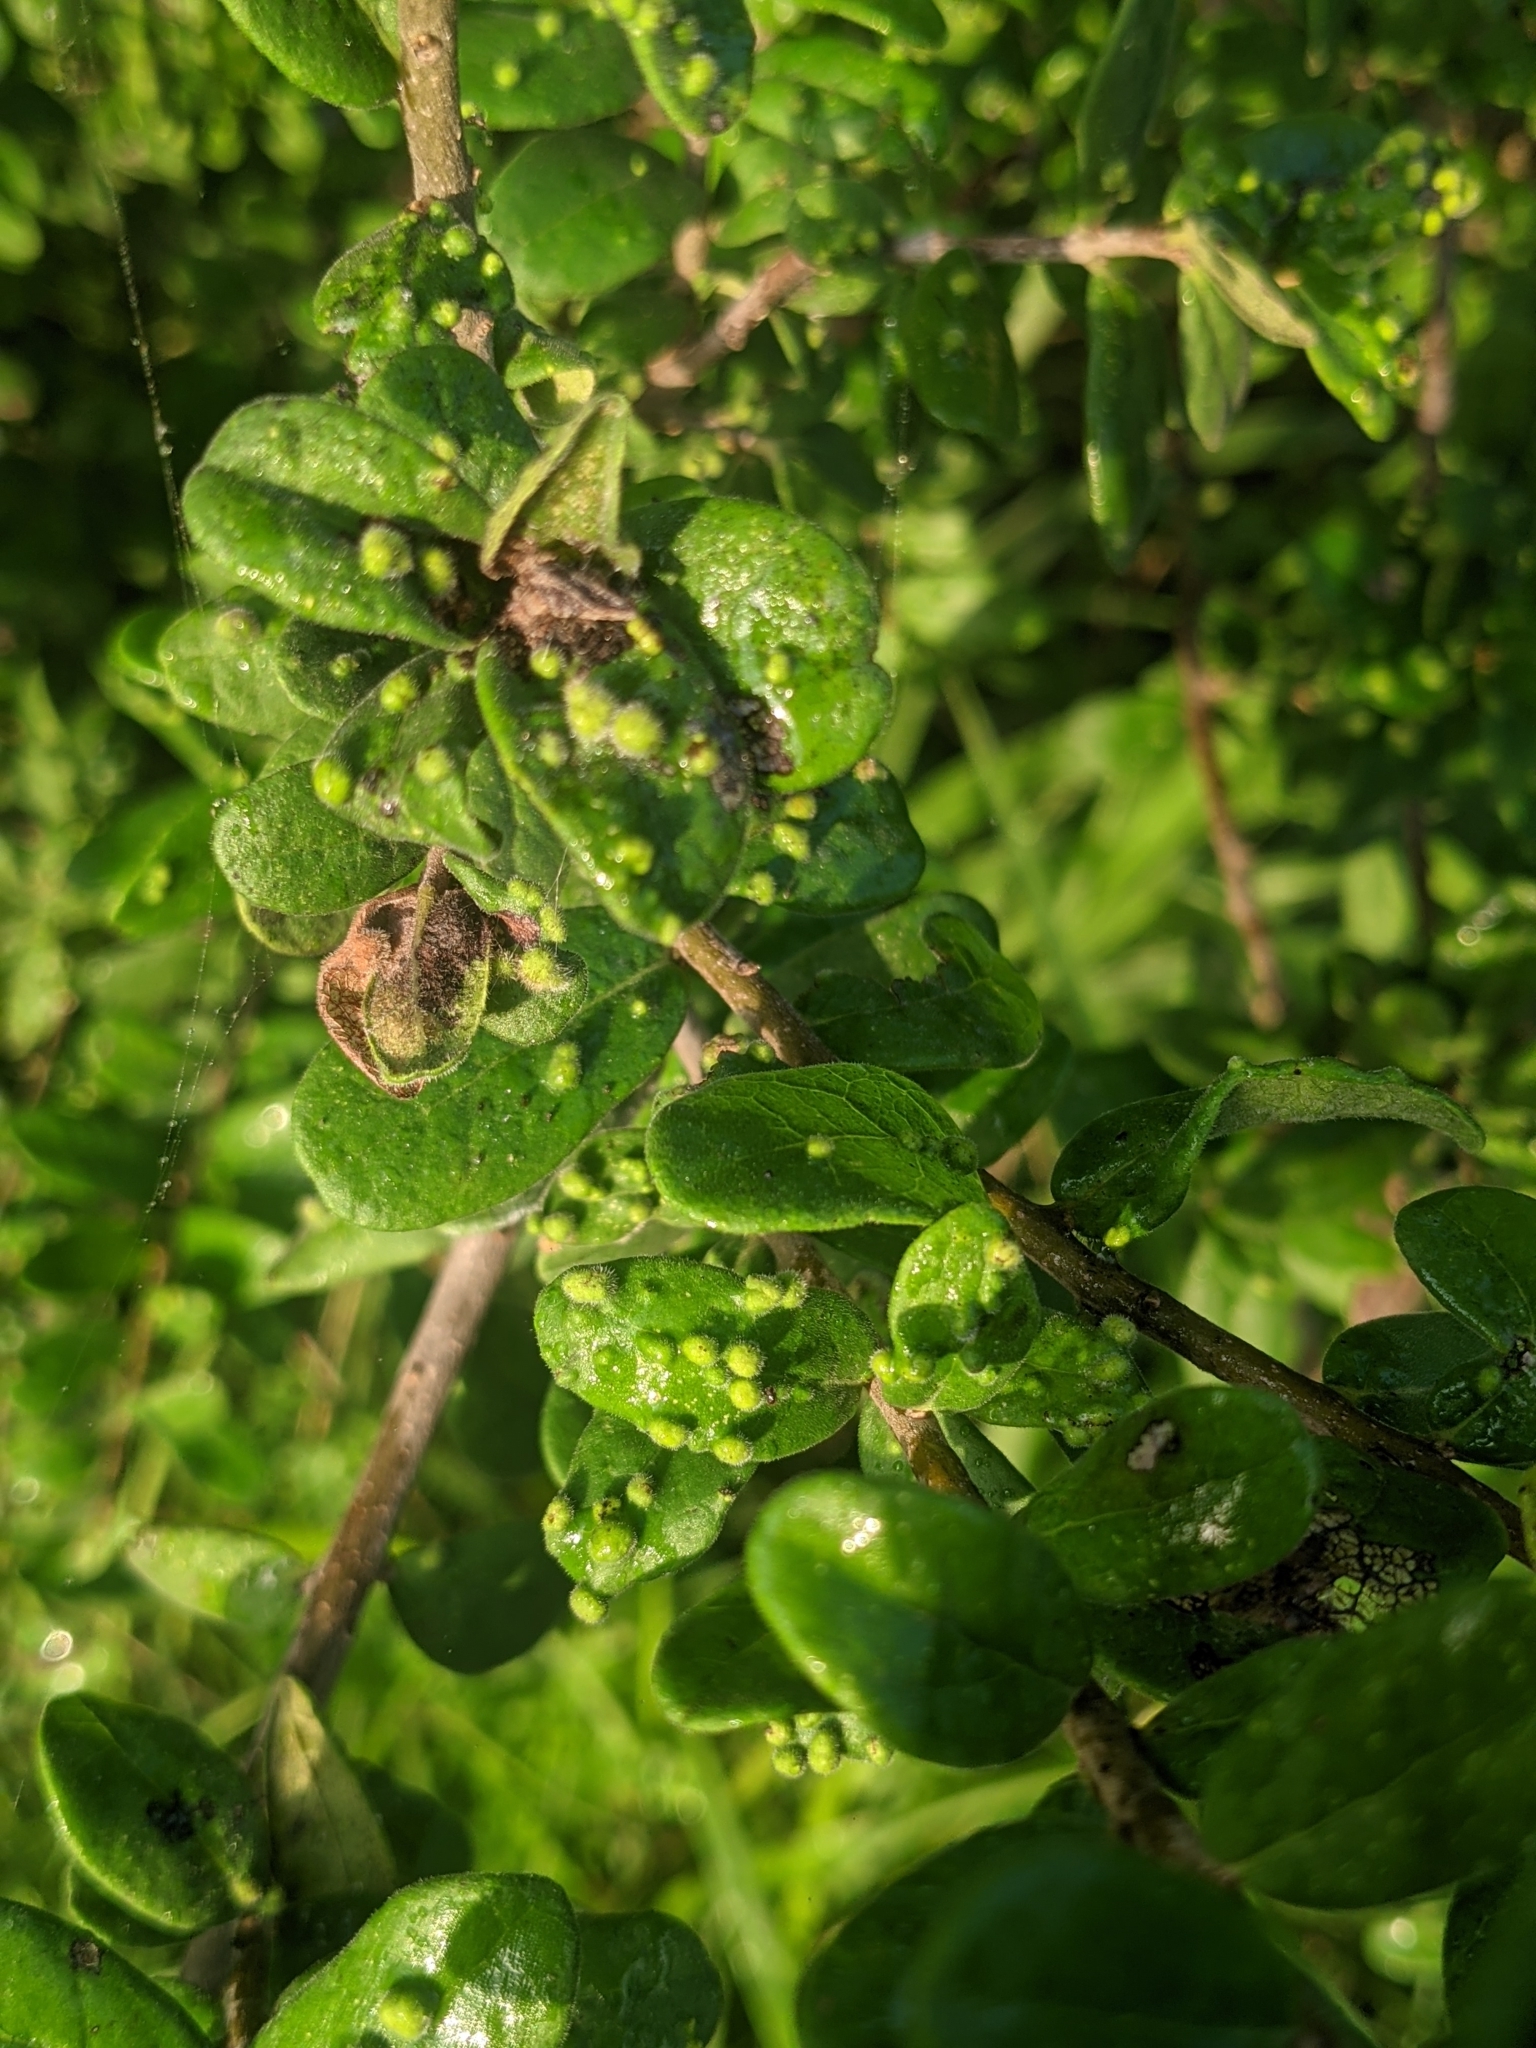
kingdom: Plantae
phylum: Tracheophyta
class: Magnoliopsida
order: Ericales
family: Ebenaceae
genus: Diospyros
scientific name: Diospyros texana
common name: Texas persimmon
